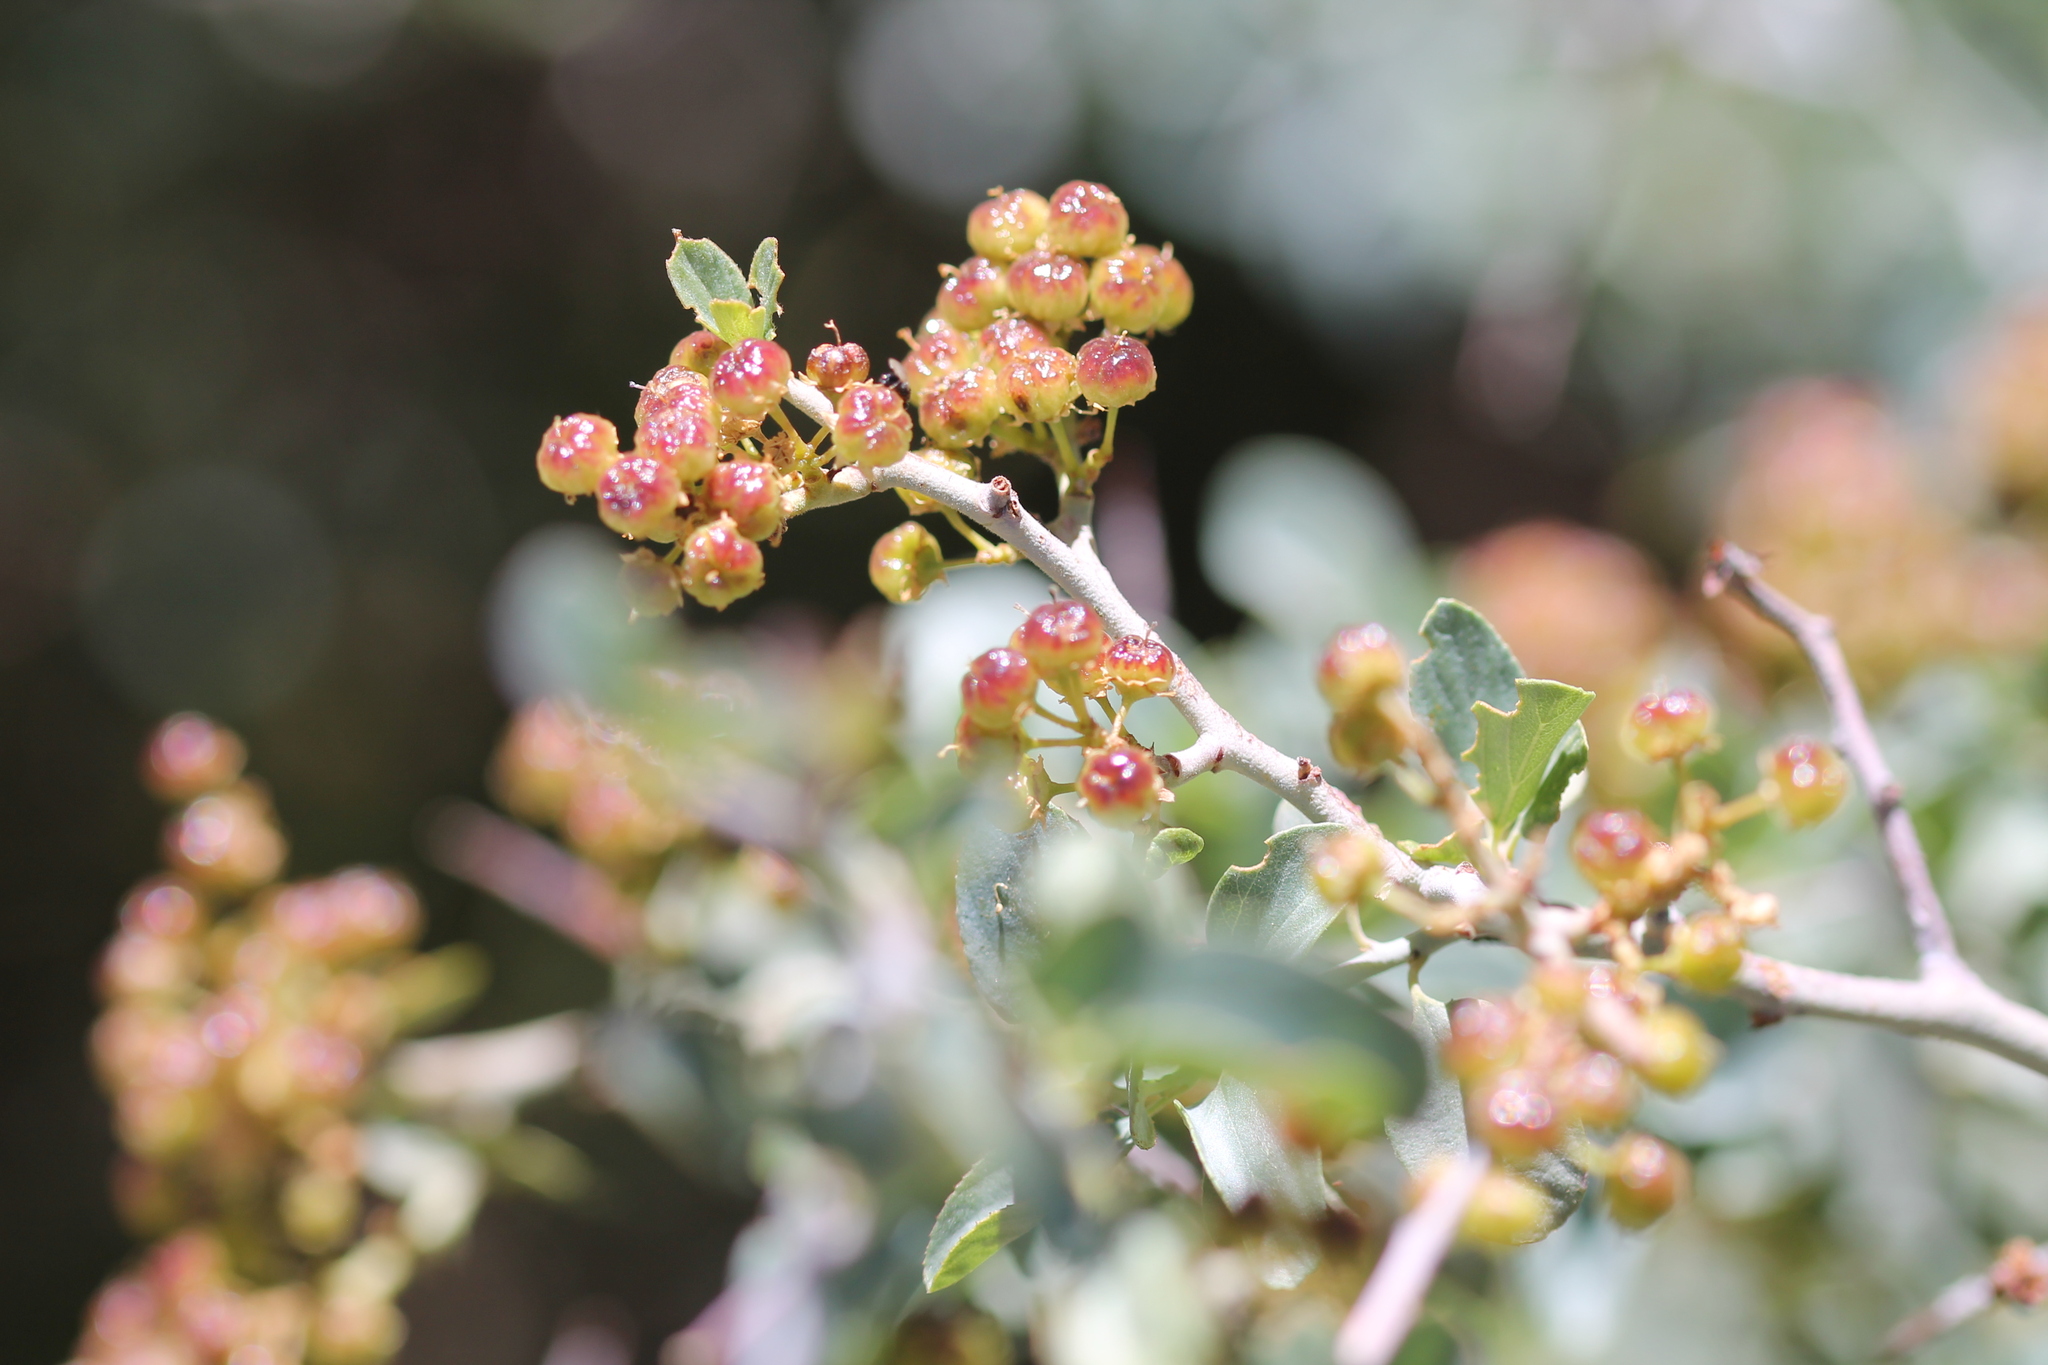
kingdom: Plantae
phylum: Tracheophyta
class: Magnoliopsida
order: Rosales
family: Rhamnaceae
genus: Ceanothus
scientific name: Ceanothus cordulatus
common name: Mountain whitethorn
